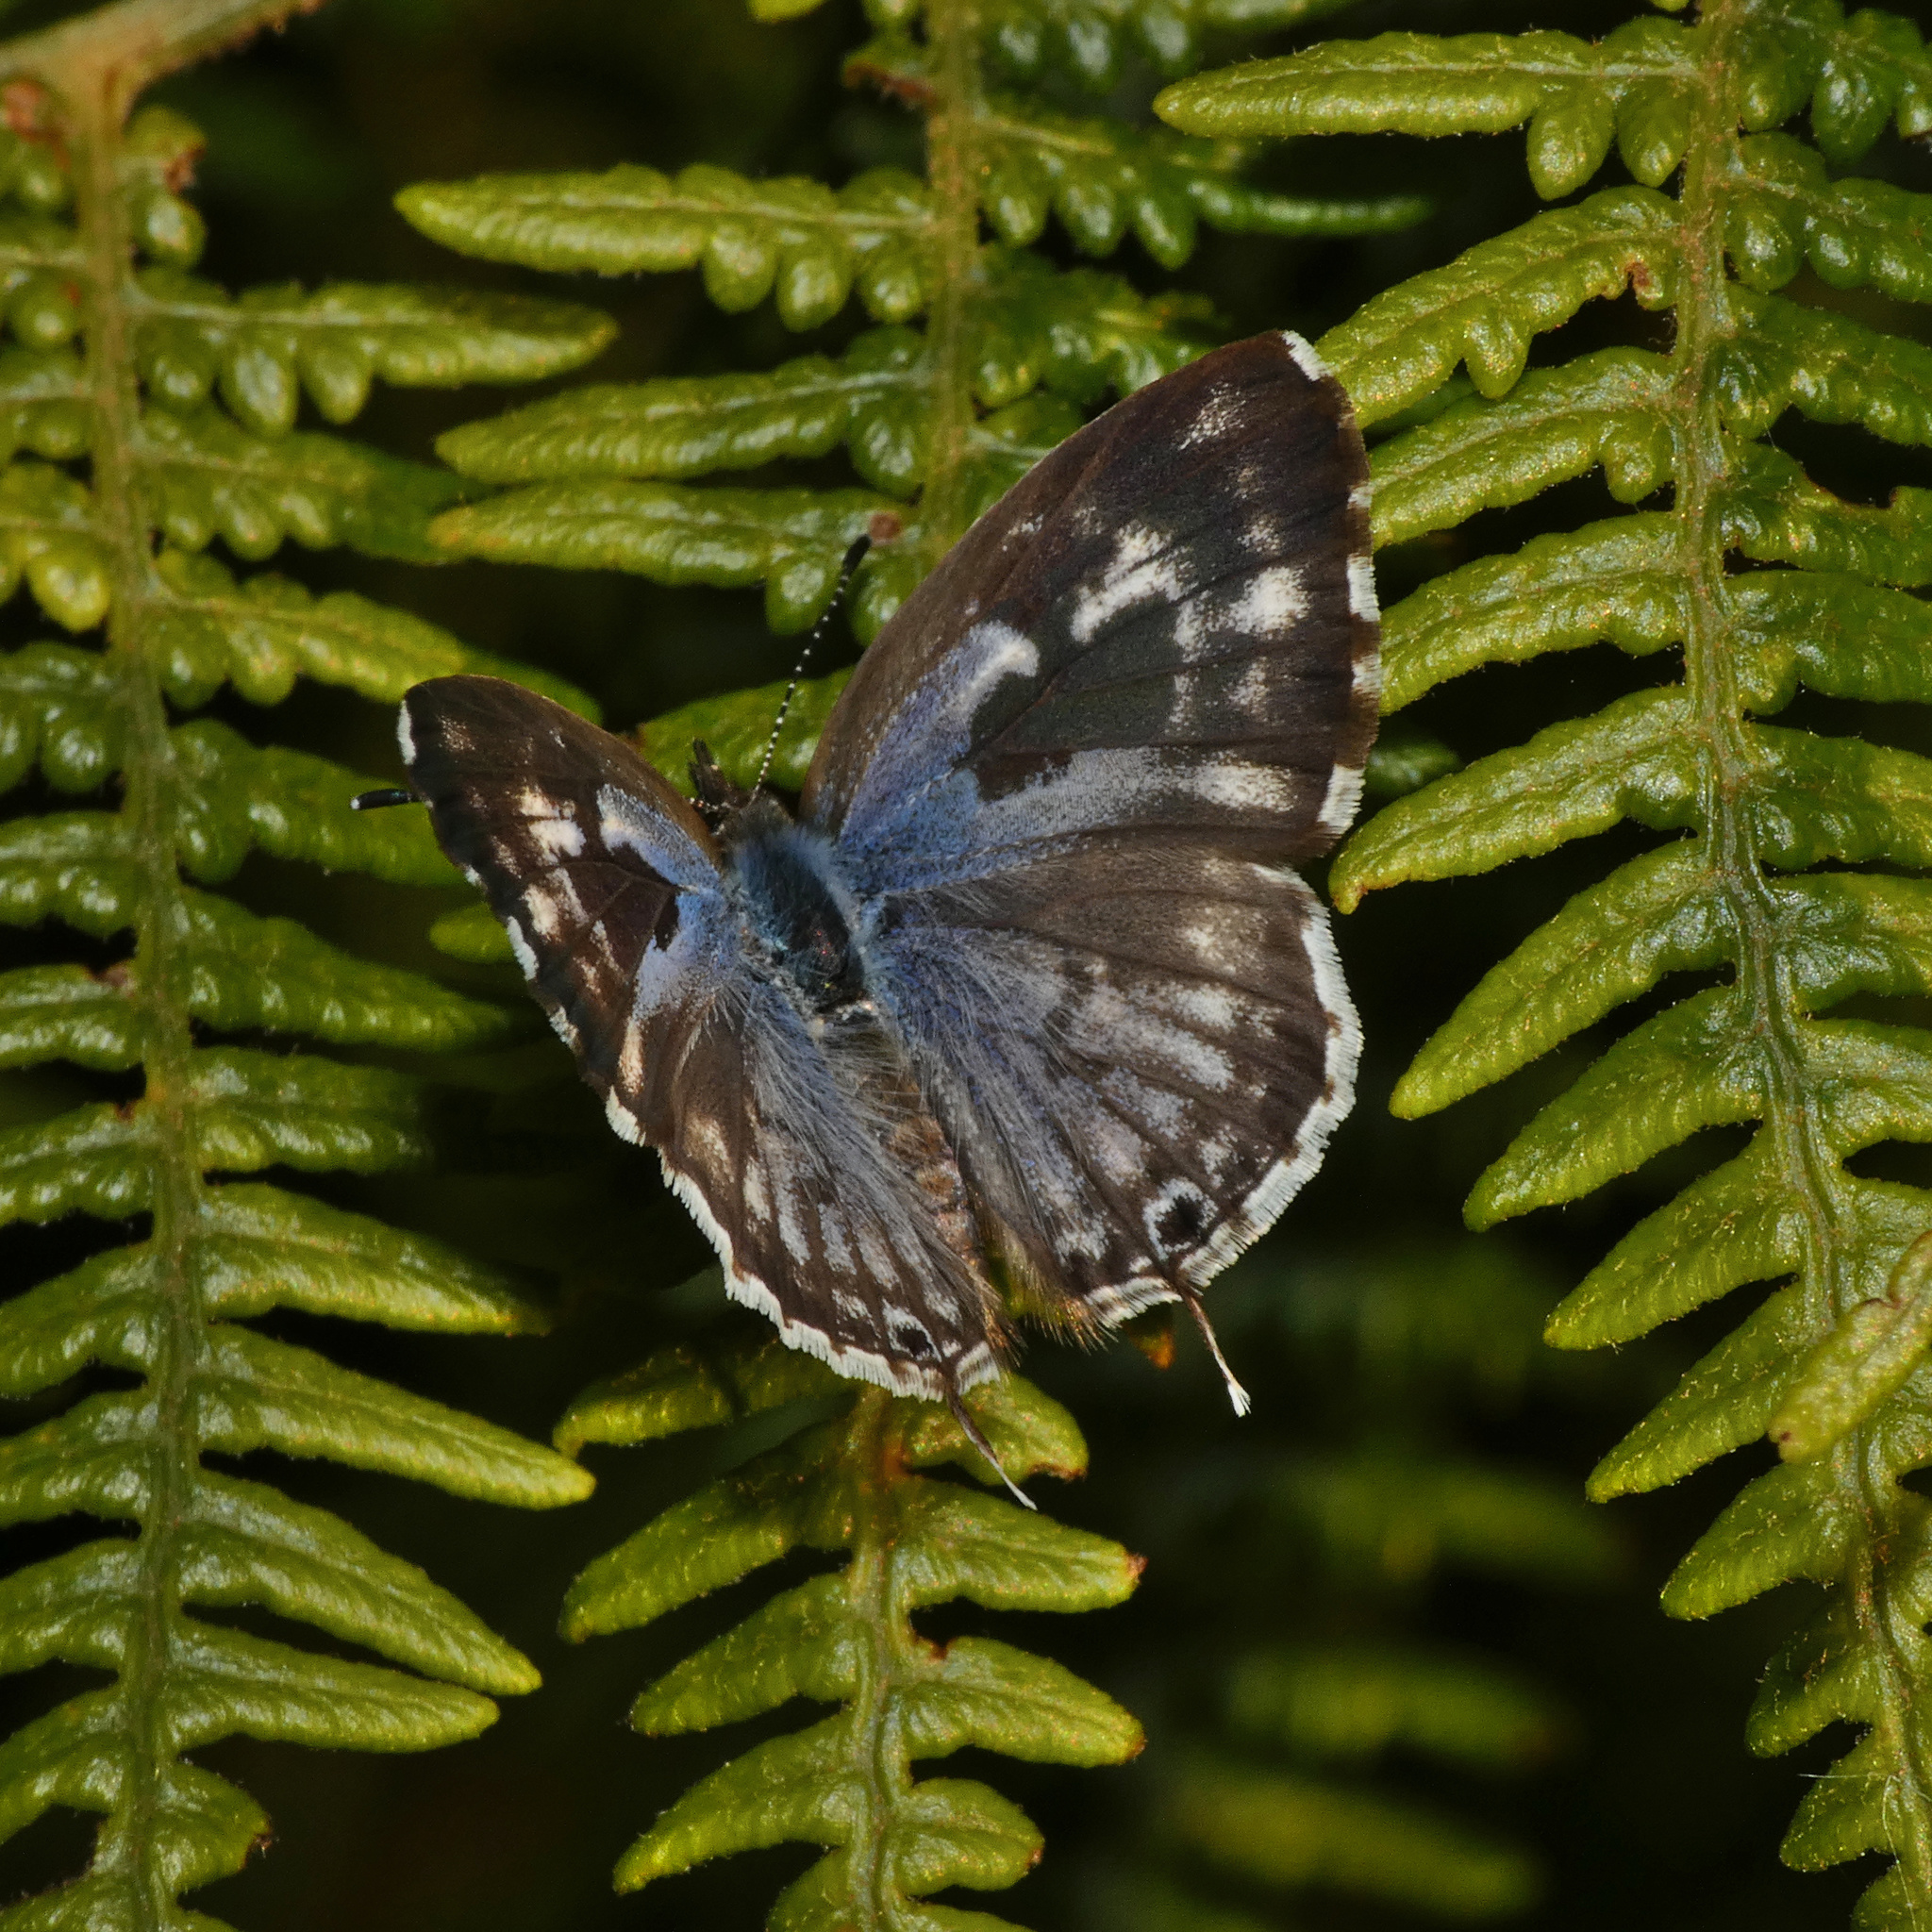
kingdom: Animalia
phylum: Arthropoda
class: Insecta
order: Lepidoptera
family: Lycaenidae
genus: Cacyreus
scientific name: Cacyreus lingeus
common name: Bush bronze
